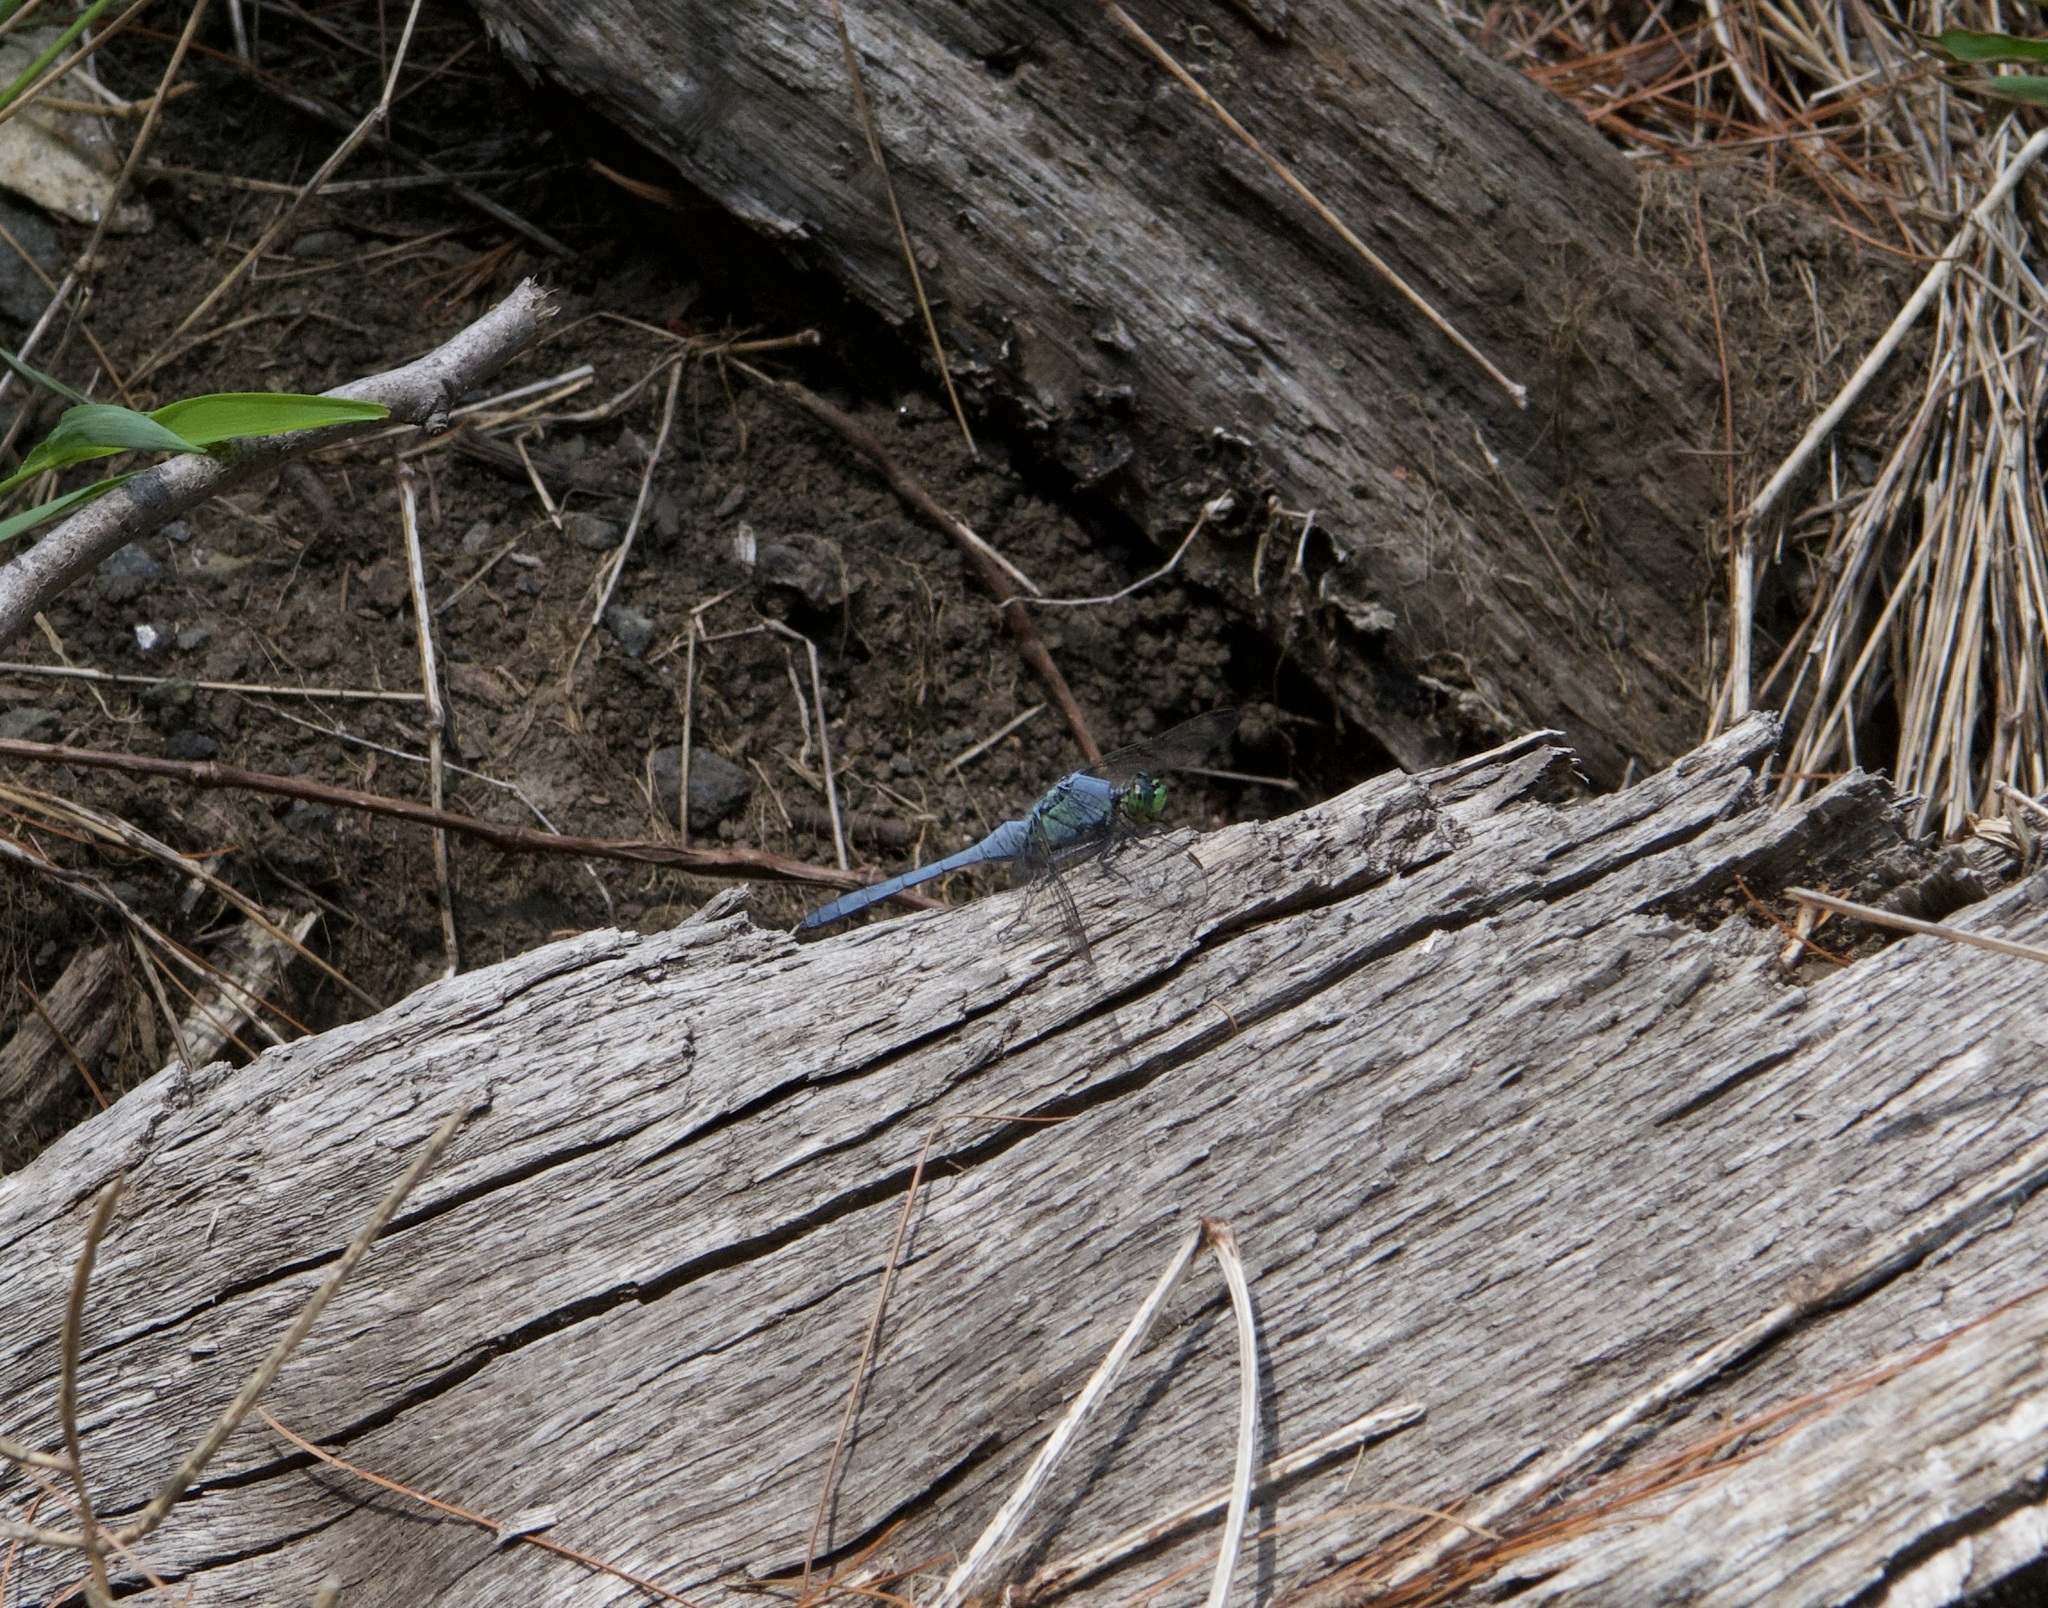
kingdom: Animalia
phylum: Arthropoda
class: Insecta
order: Odonata
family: Libellulidae
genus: Erythemis
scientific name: Erythemis simplicicollis
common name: Eastern pondhawk
